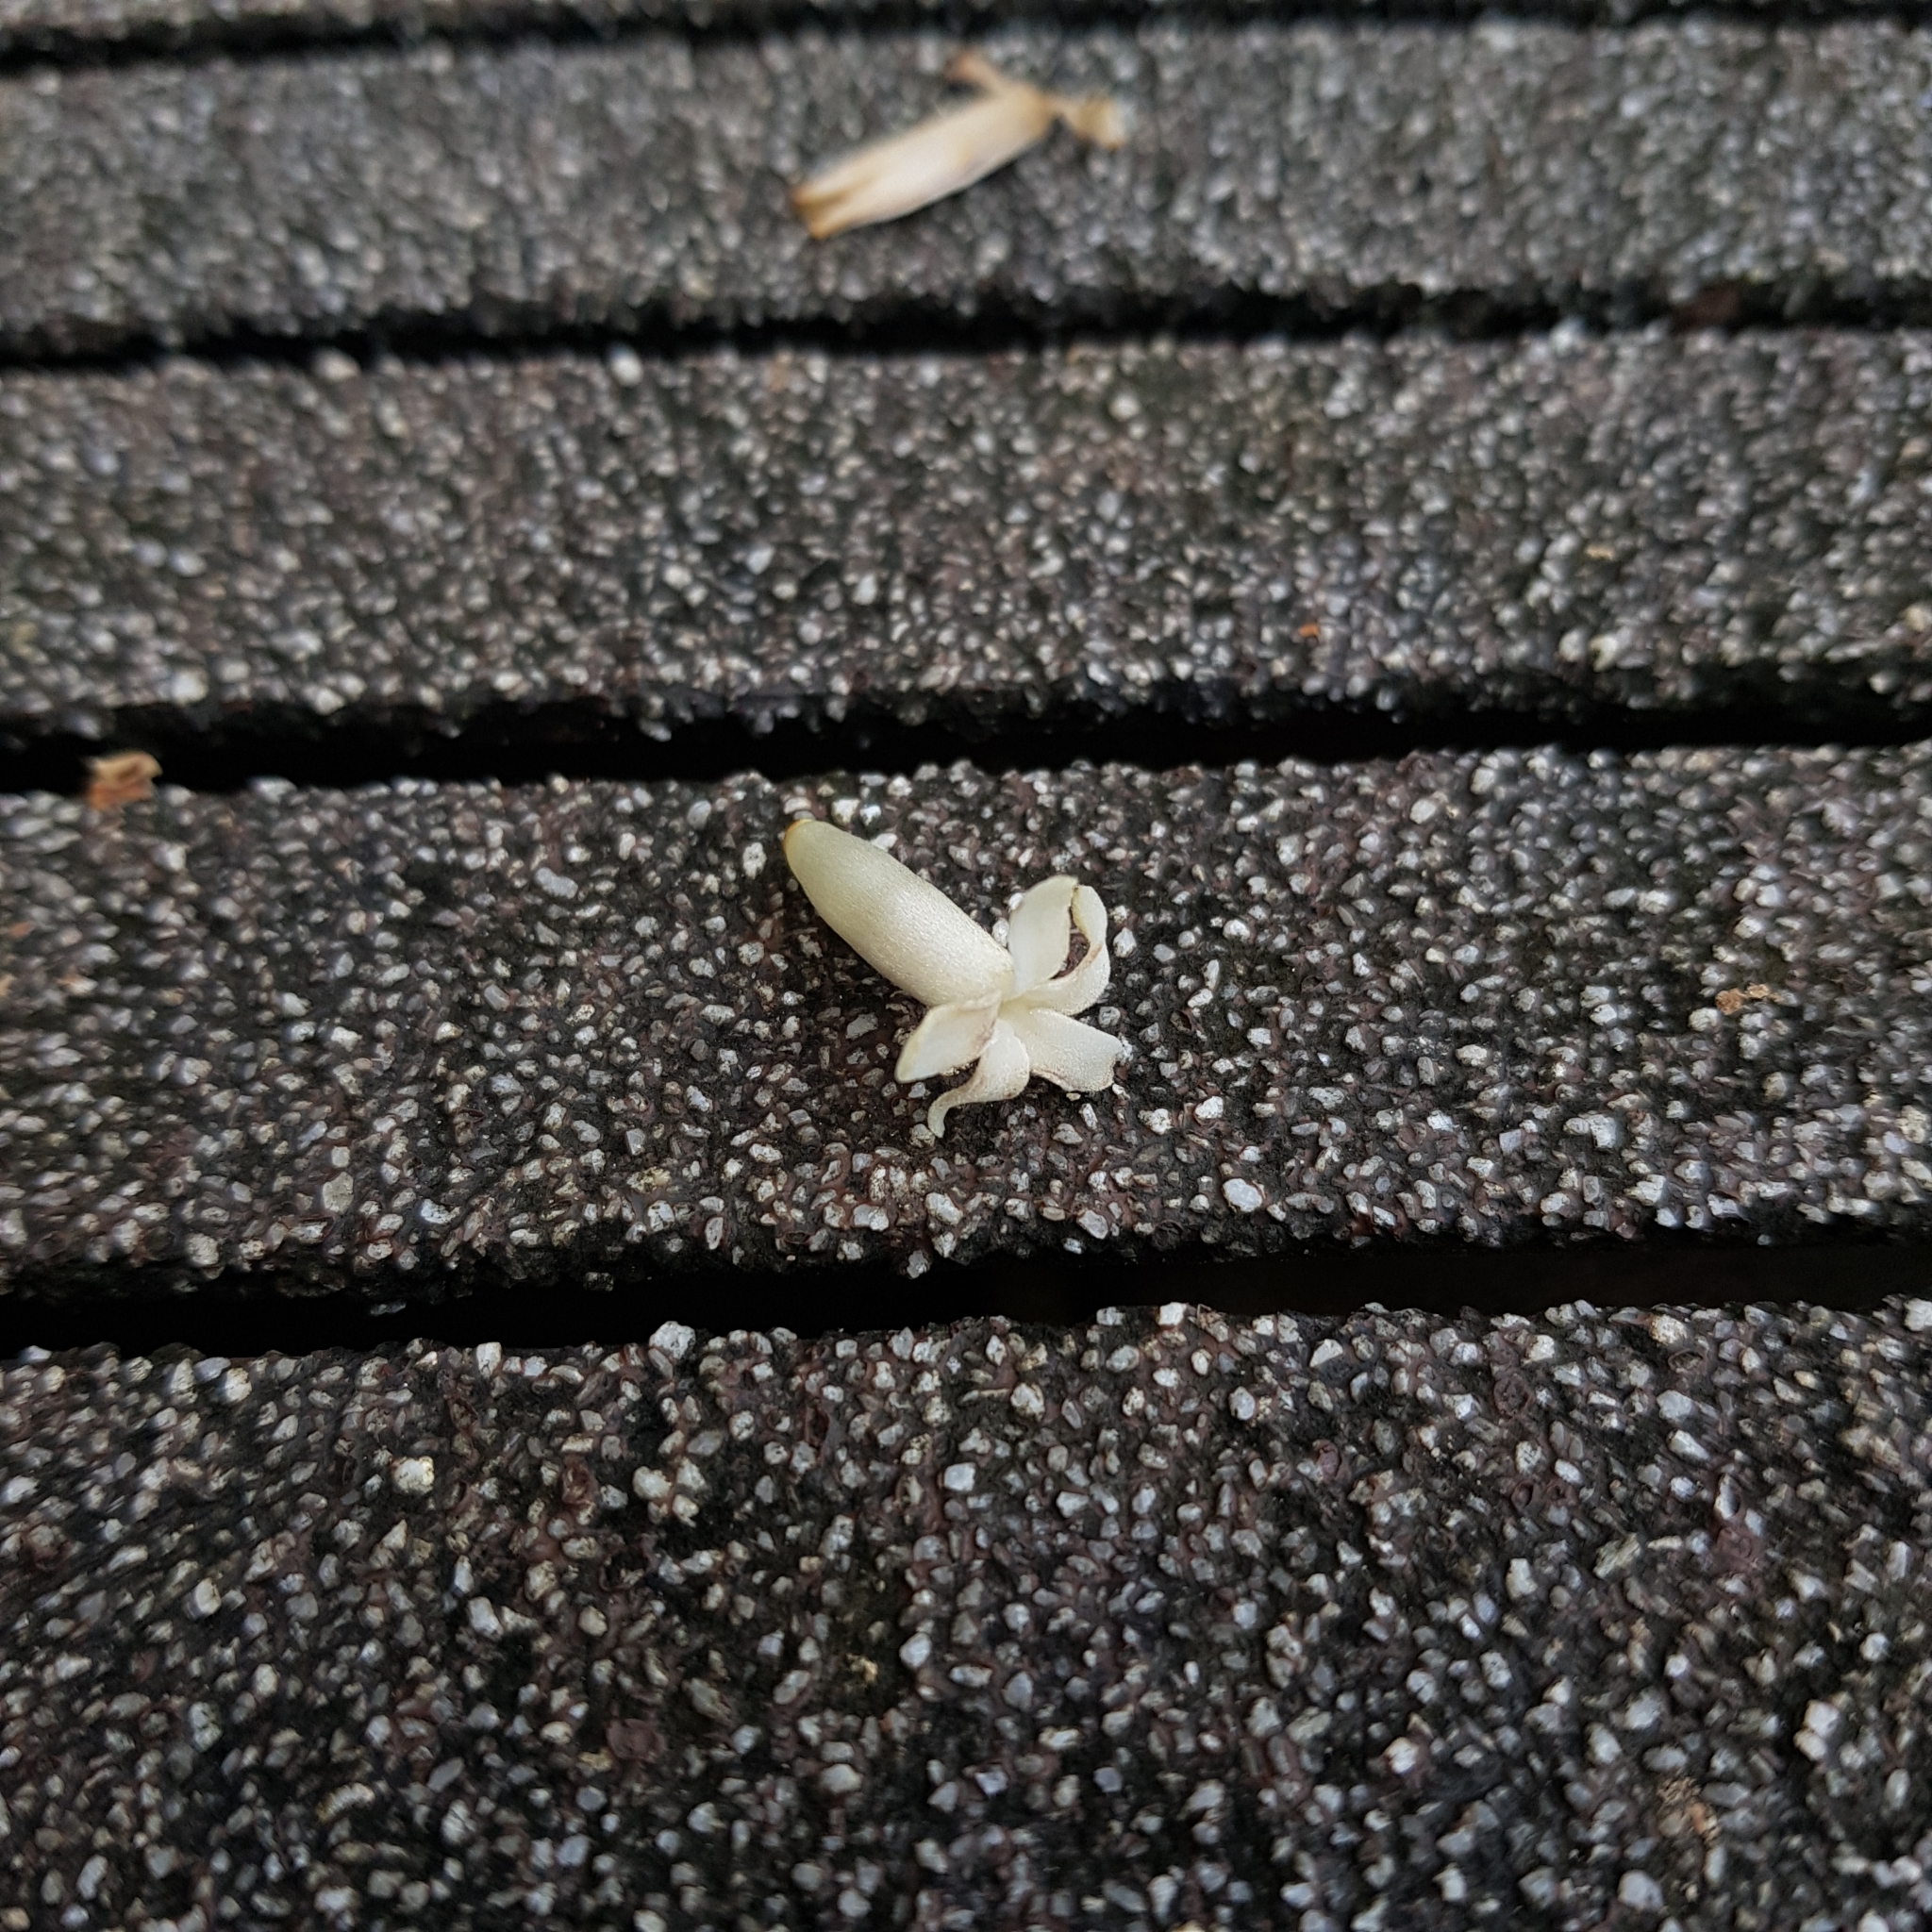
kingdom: Plantae
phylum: Tracheophyta
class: Magnoliopsida
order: Gentianales
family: Rubiaceae
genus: Porterandia
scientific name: Porterandia anisophylla
